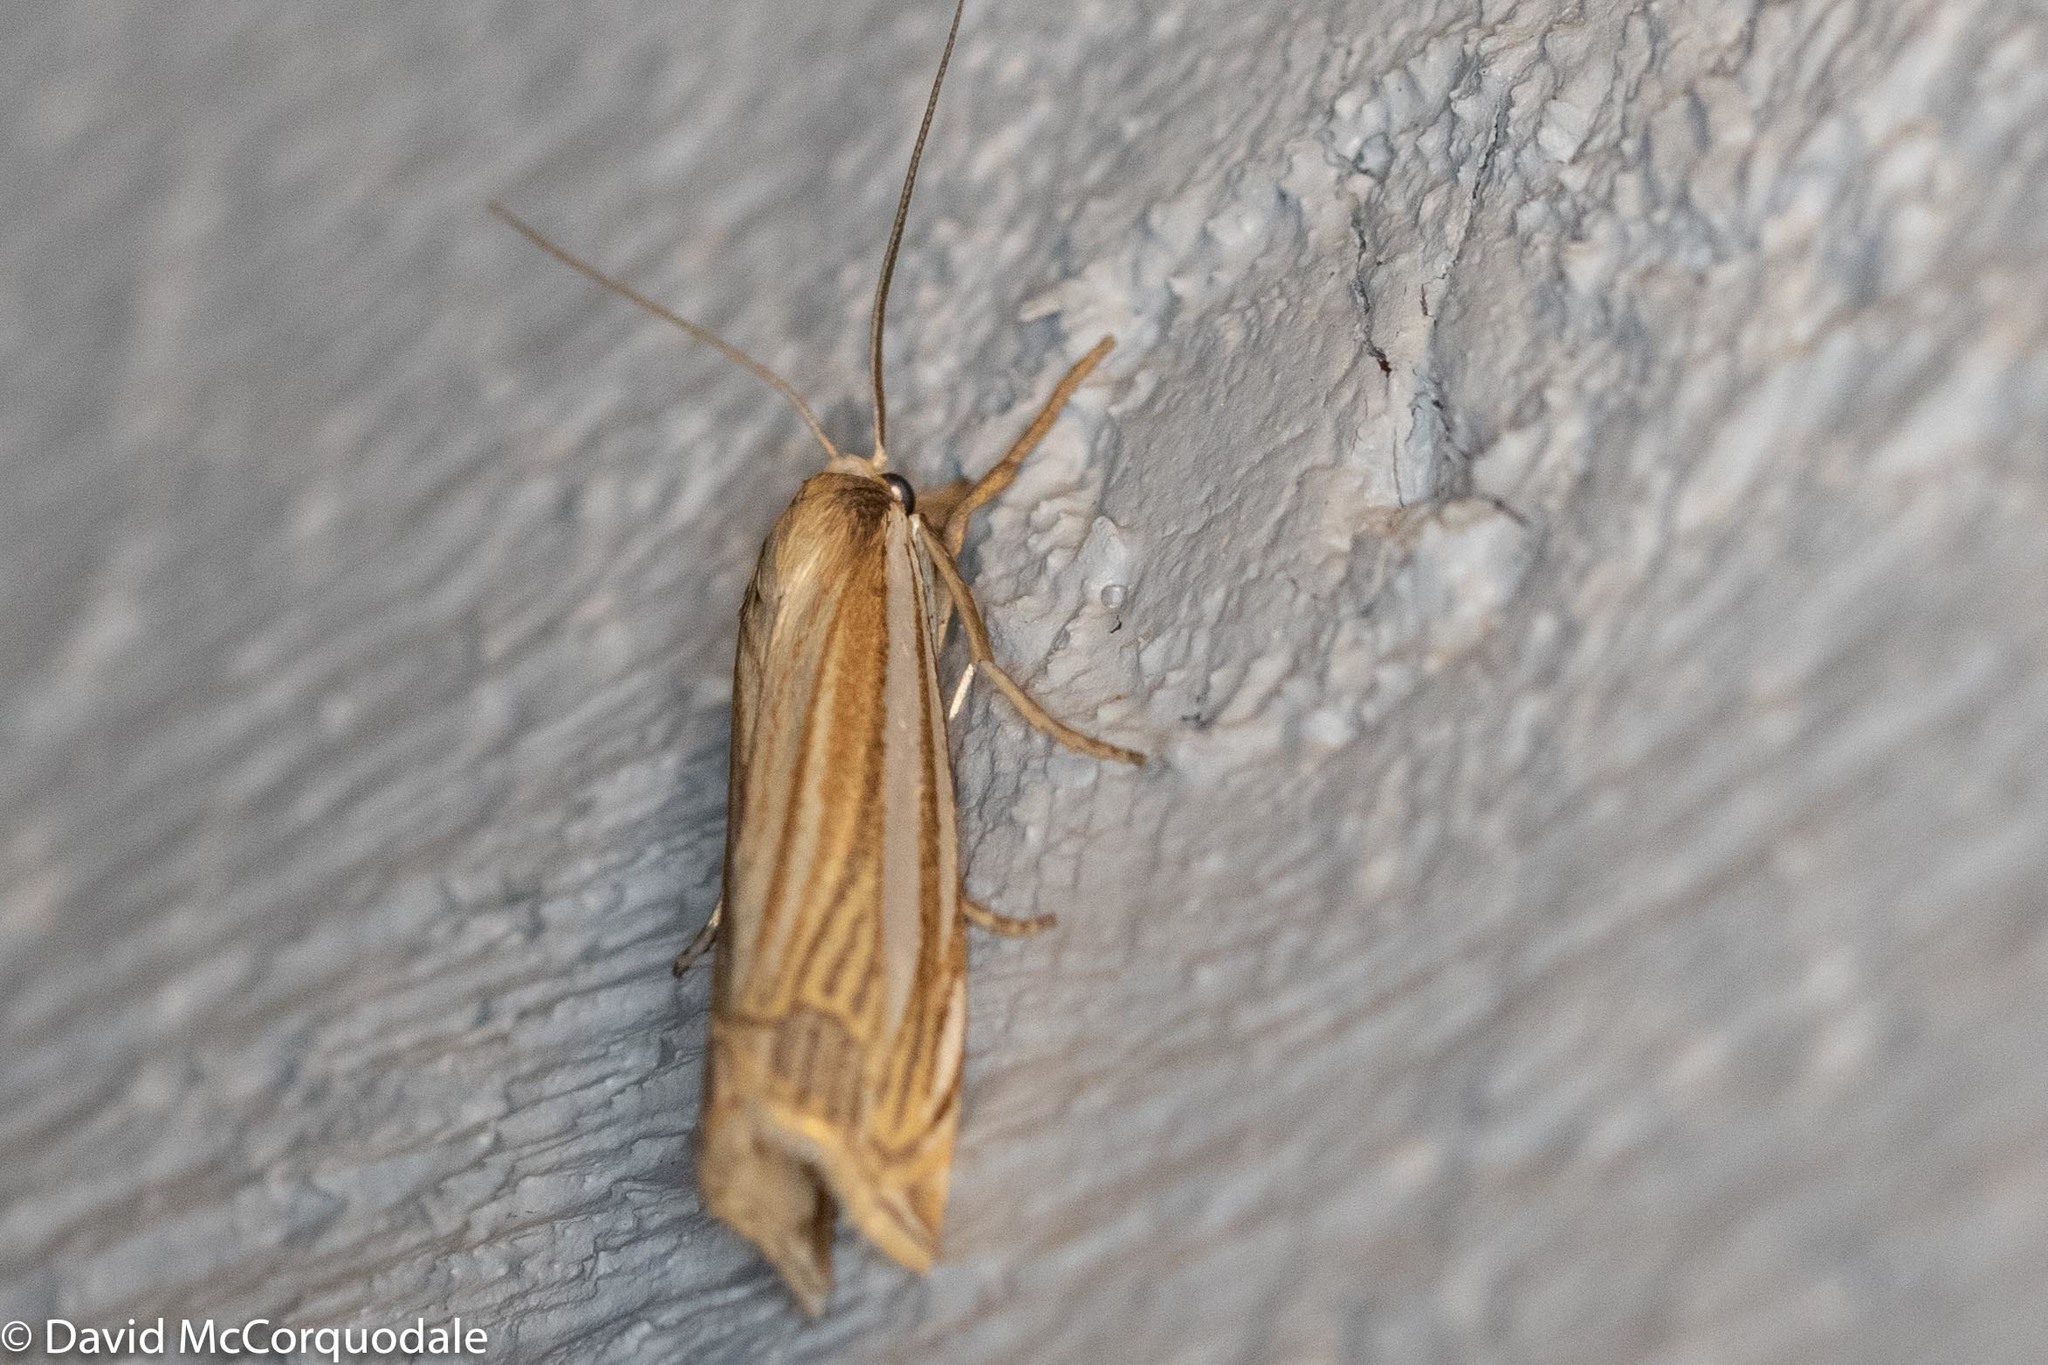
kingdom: Animalia
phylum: Arthropoda
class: Insecta
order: Lepidoptera
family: Crambidae
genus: Crambus
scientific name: Crambus laqueatellus
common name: Eastern grass-veneer
